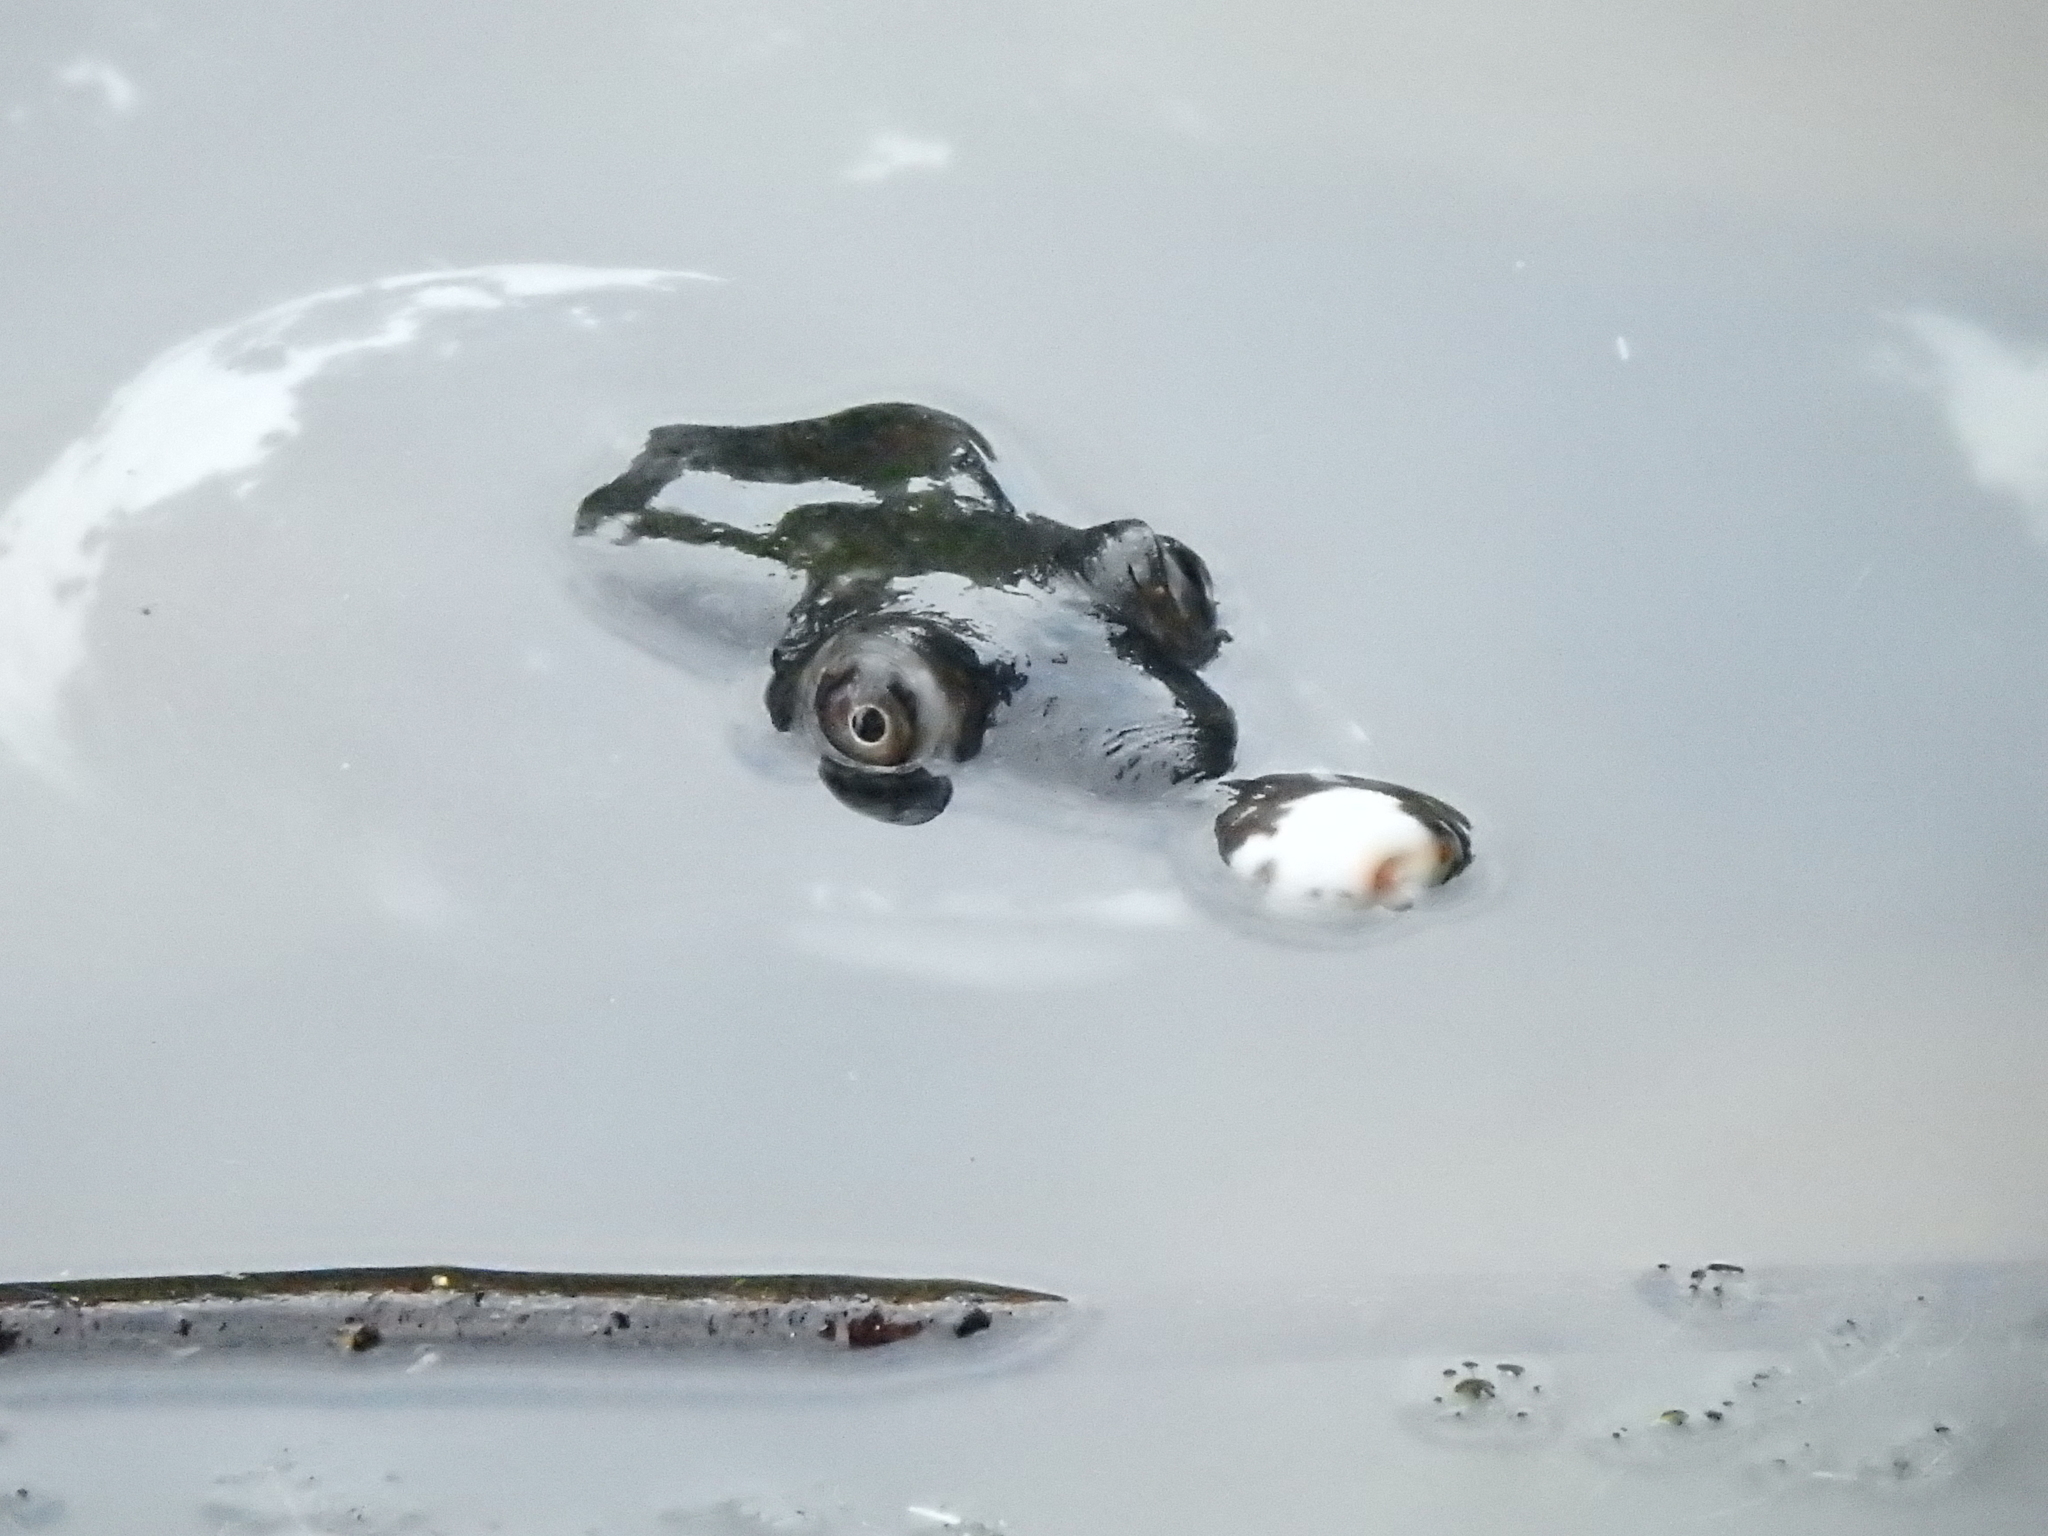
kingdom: Animalia
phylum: Chordata
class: Testudines
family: Trionychidae
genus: Amyda
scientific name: Amyda cartilaginea
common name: Asiatic softshell turtle
